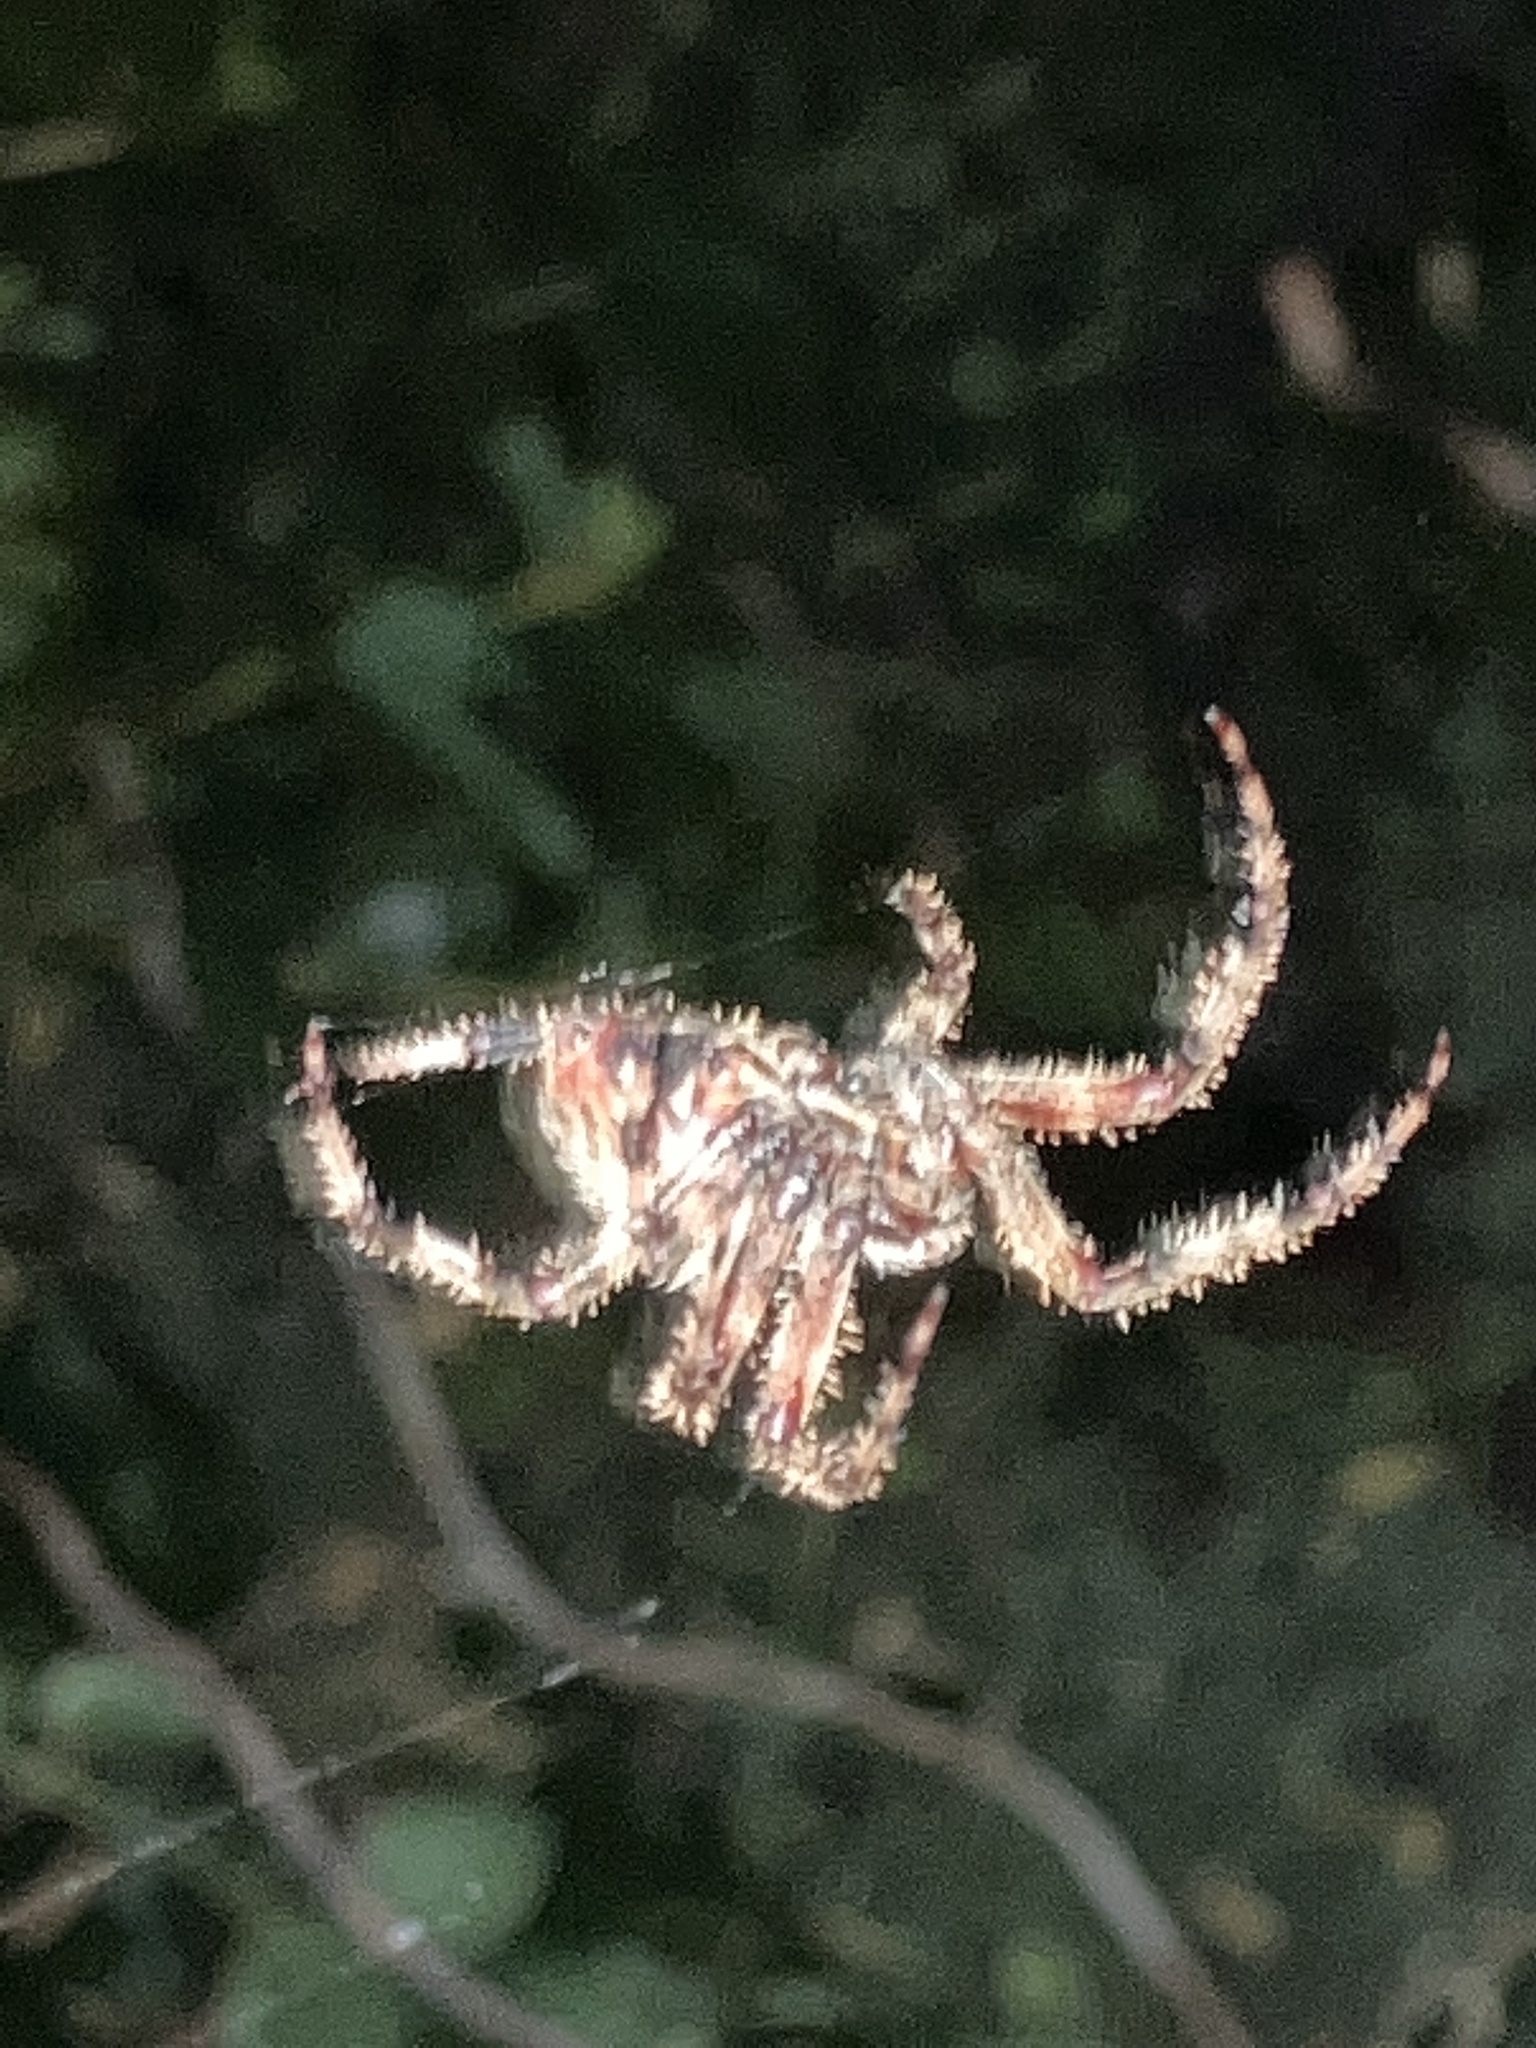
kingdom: Animalia
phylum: Arthropoda
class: Arachnida
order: Araneae
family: Araneidae
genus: Neoscona
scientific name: Neoscona crucifera
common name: Spotted orbweaver
